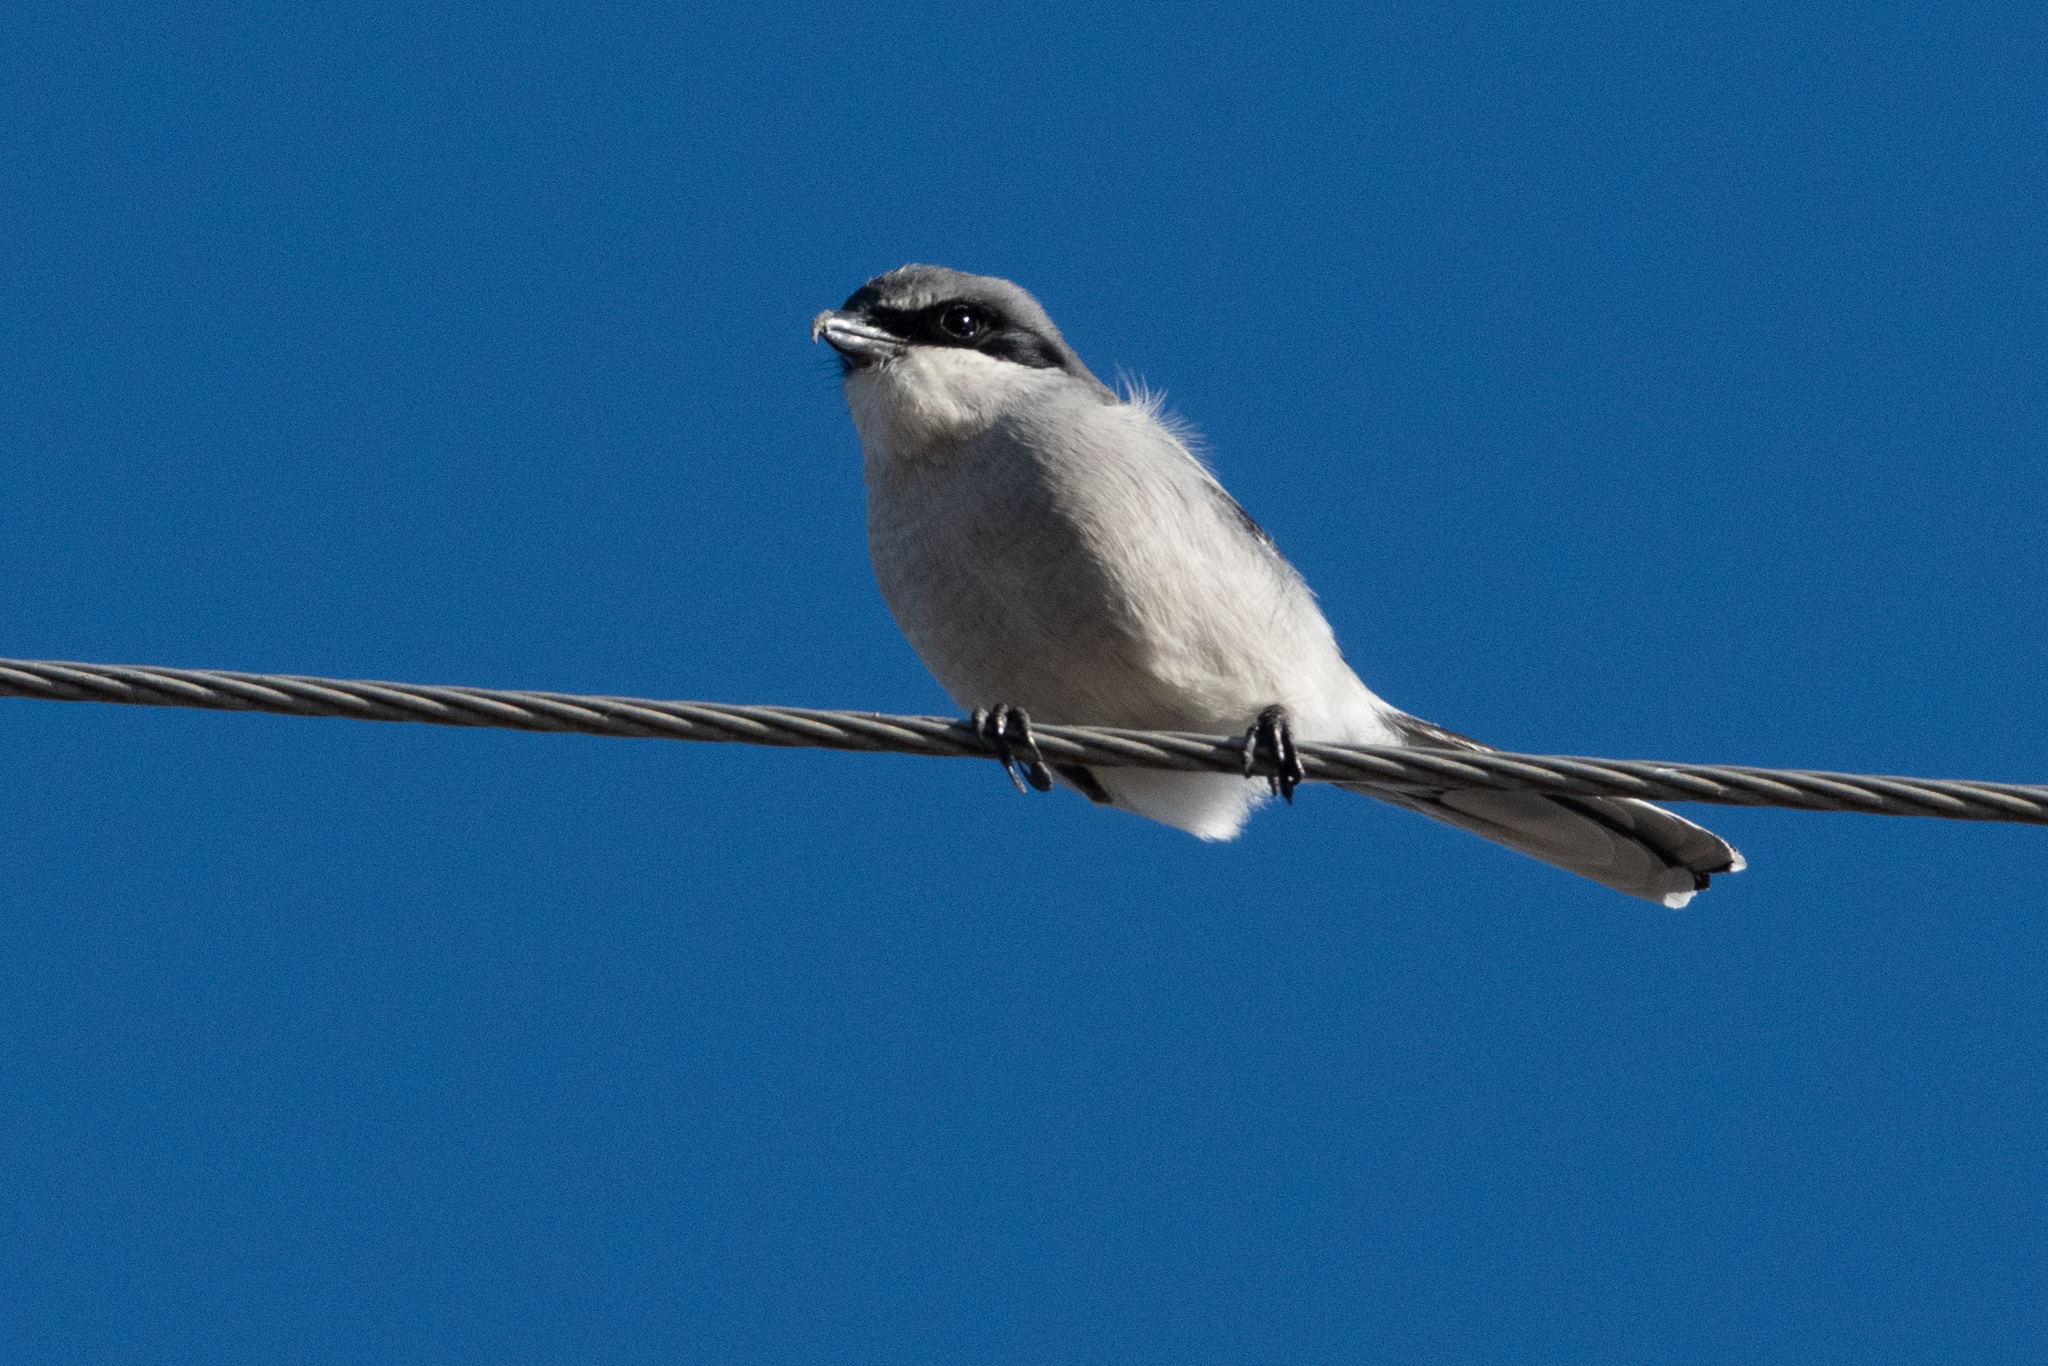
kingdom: Animalia
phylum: Chordata
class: Aves
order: Passeriformes
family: Laniidae
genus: Lanius
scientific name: Lanius ludovicianus
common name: Loggerhead shrike
